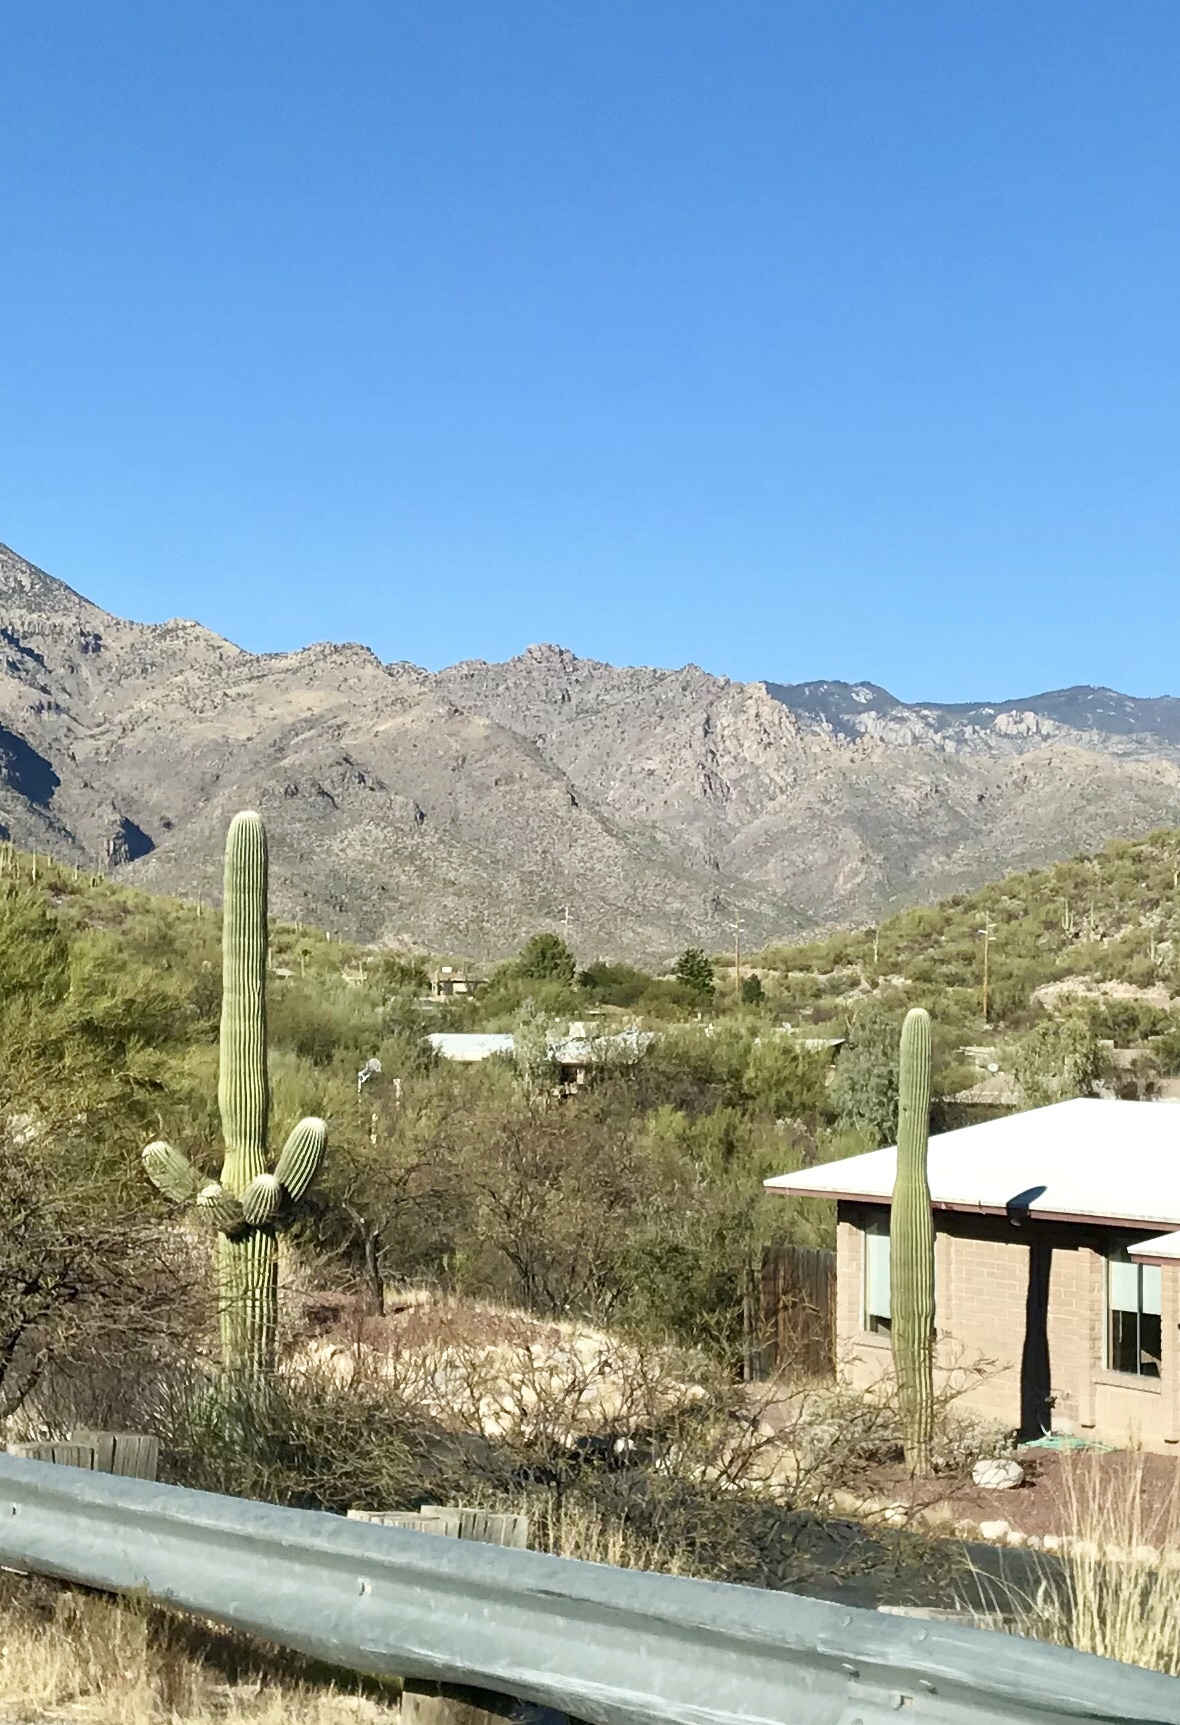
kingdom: Plantae
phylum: Tracheophyta
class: Magnoliopsida
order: Caryophyllales
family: Cactaceae
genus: Carnegiea
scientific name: Carnegiea gigantea
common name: Saguaro
